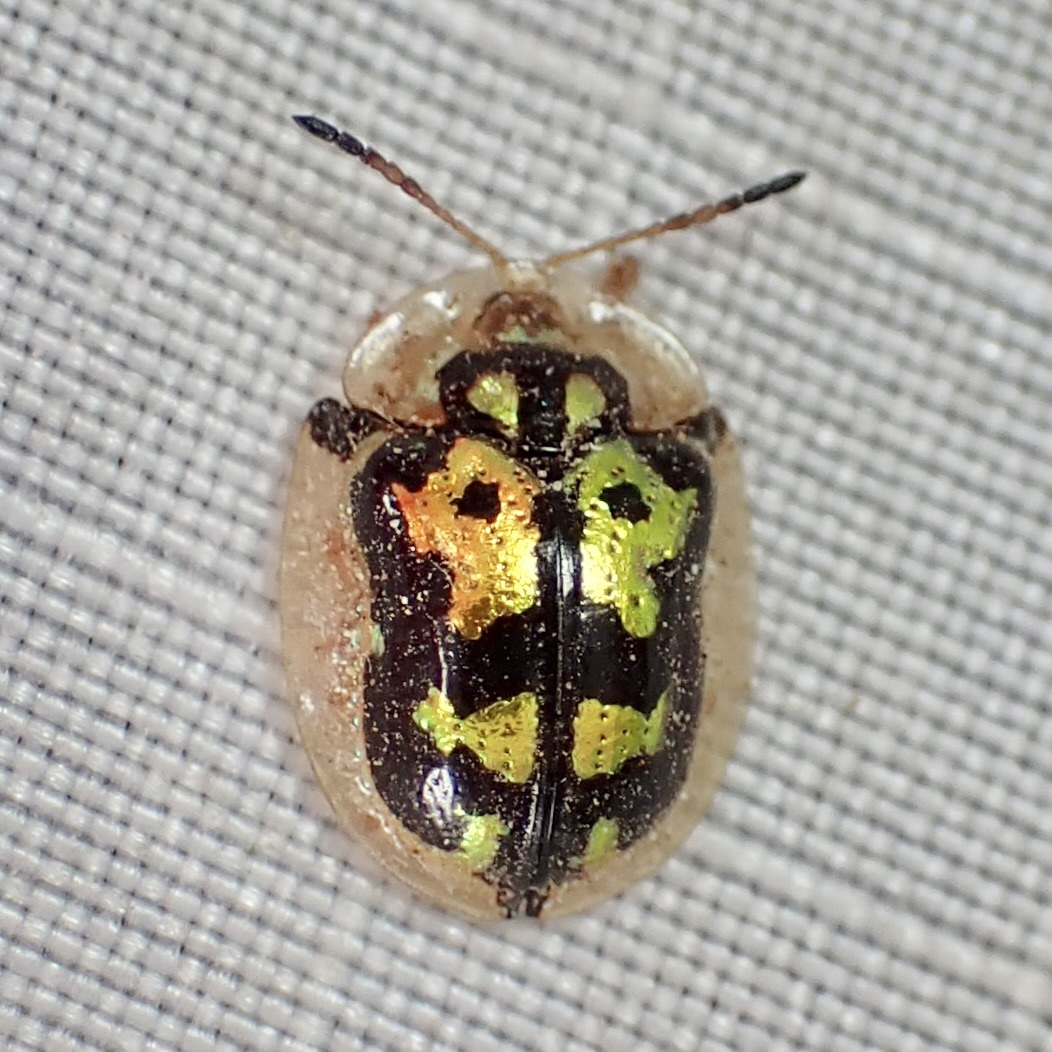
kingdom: Animalia
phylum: Arthropoda
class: Insecta
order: Coleoptera
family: Chrysomelidae
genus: Deloyala
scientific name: Deloyala lecontei
